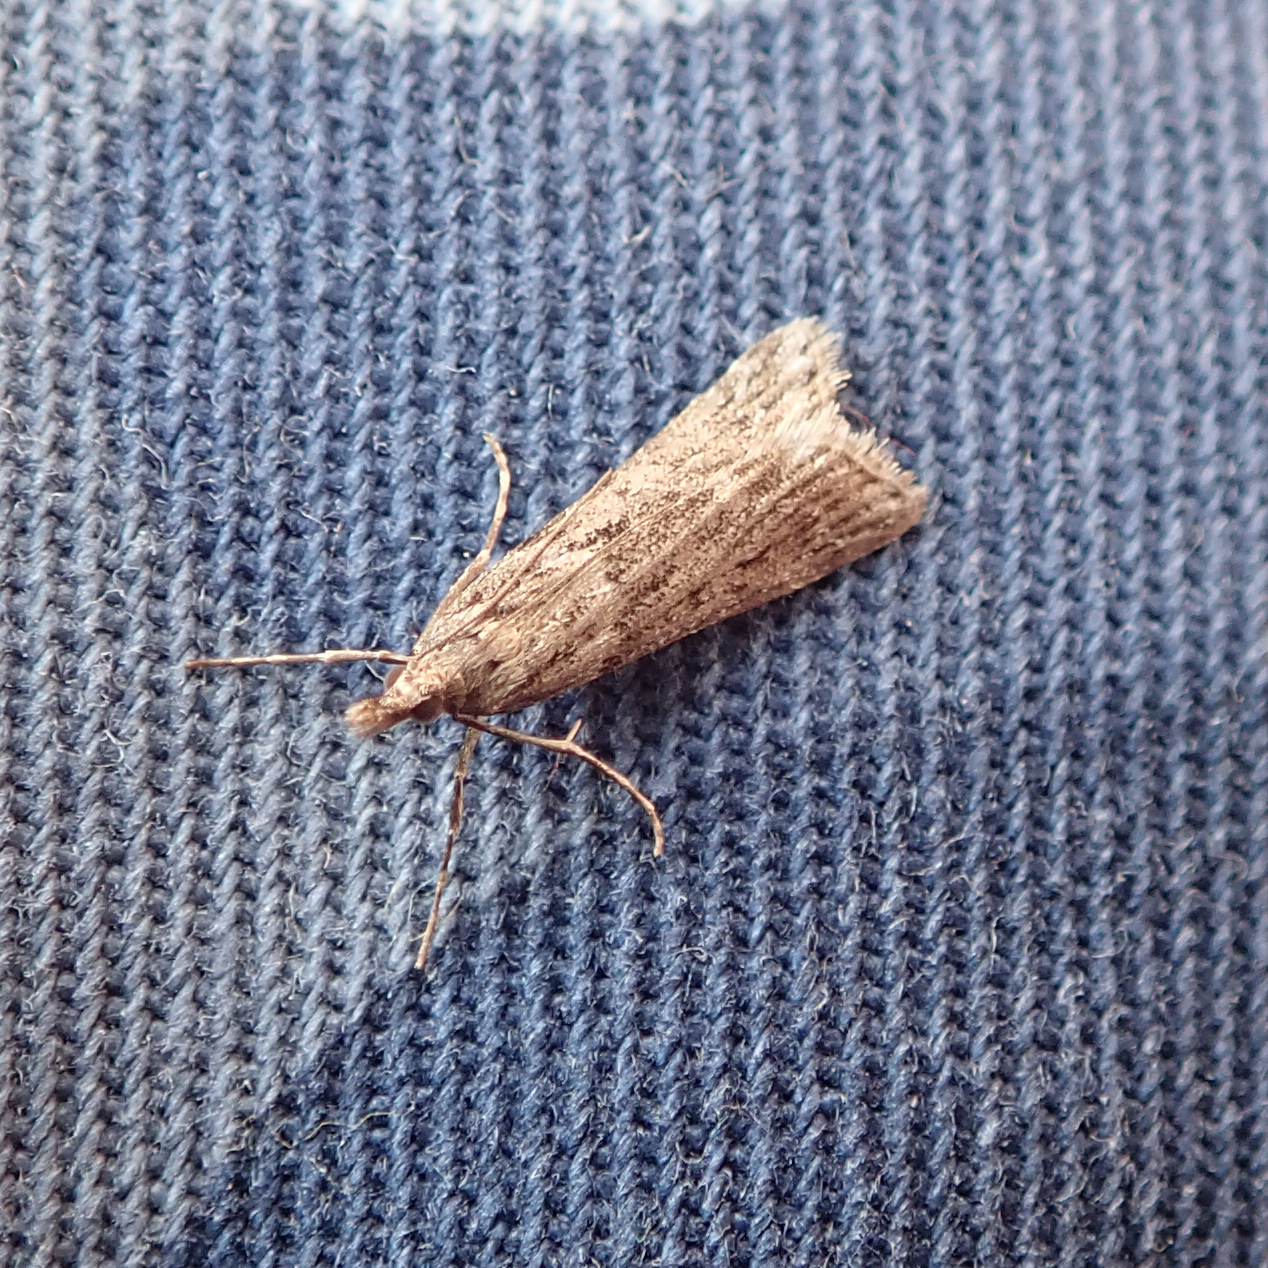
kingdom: Animalia
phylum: Arthropoda
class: Insecta
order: Lepidoptera
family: Crambidae
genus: Eudonia
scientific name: Eudonia angustea
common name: Narrow-winged grey
